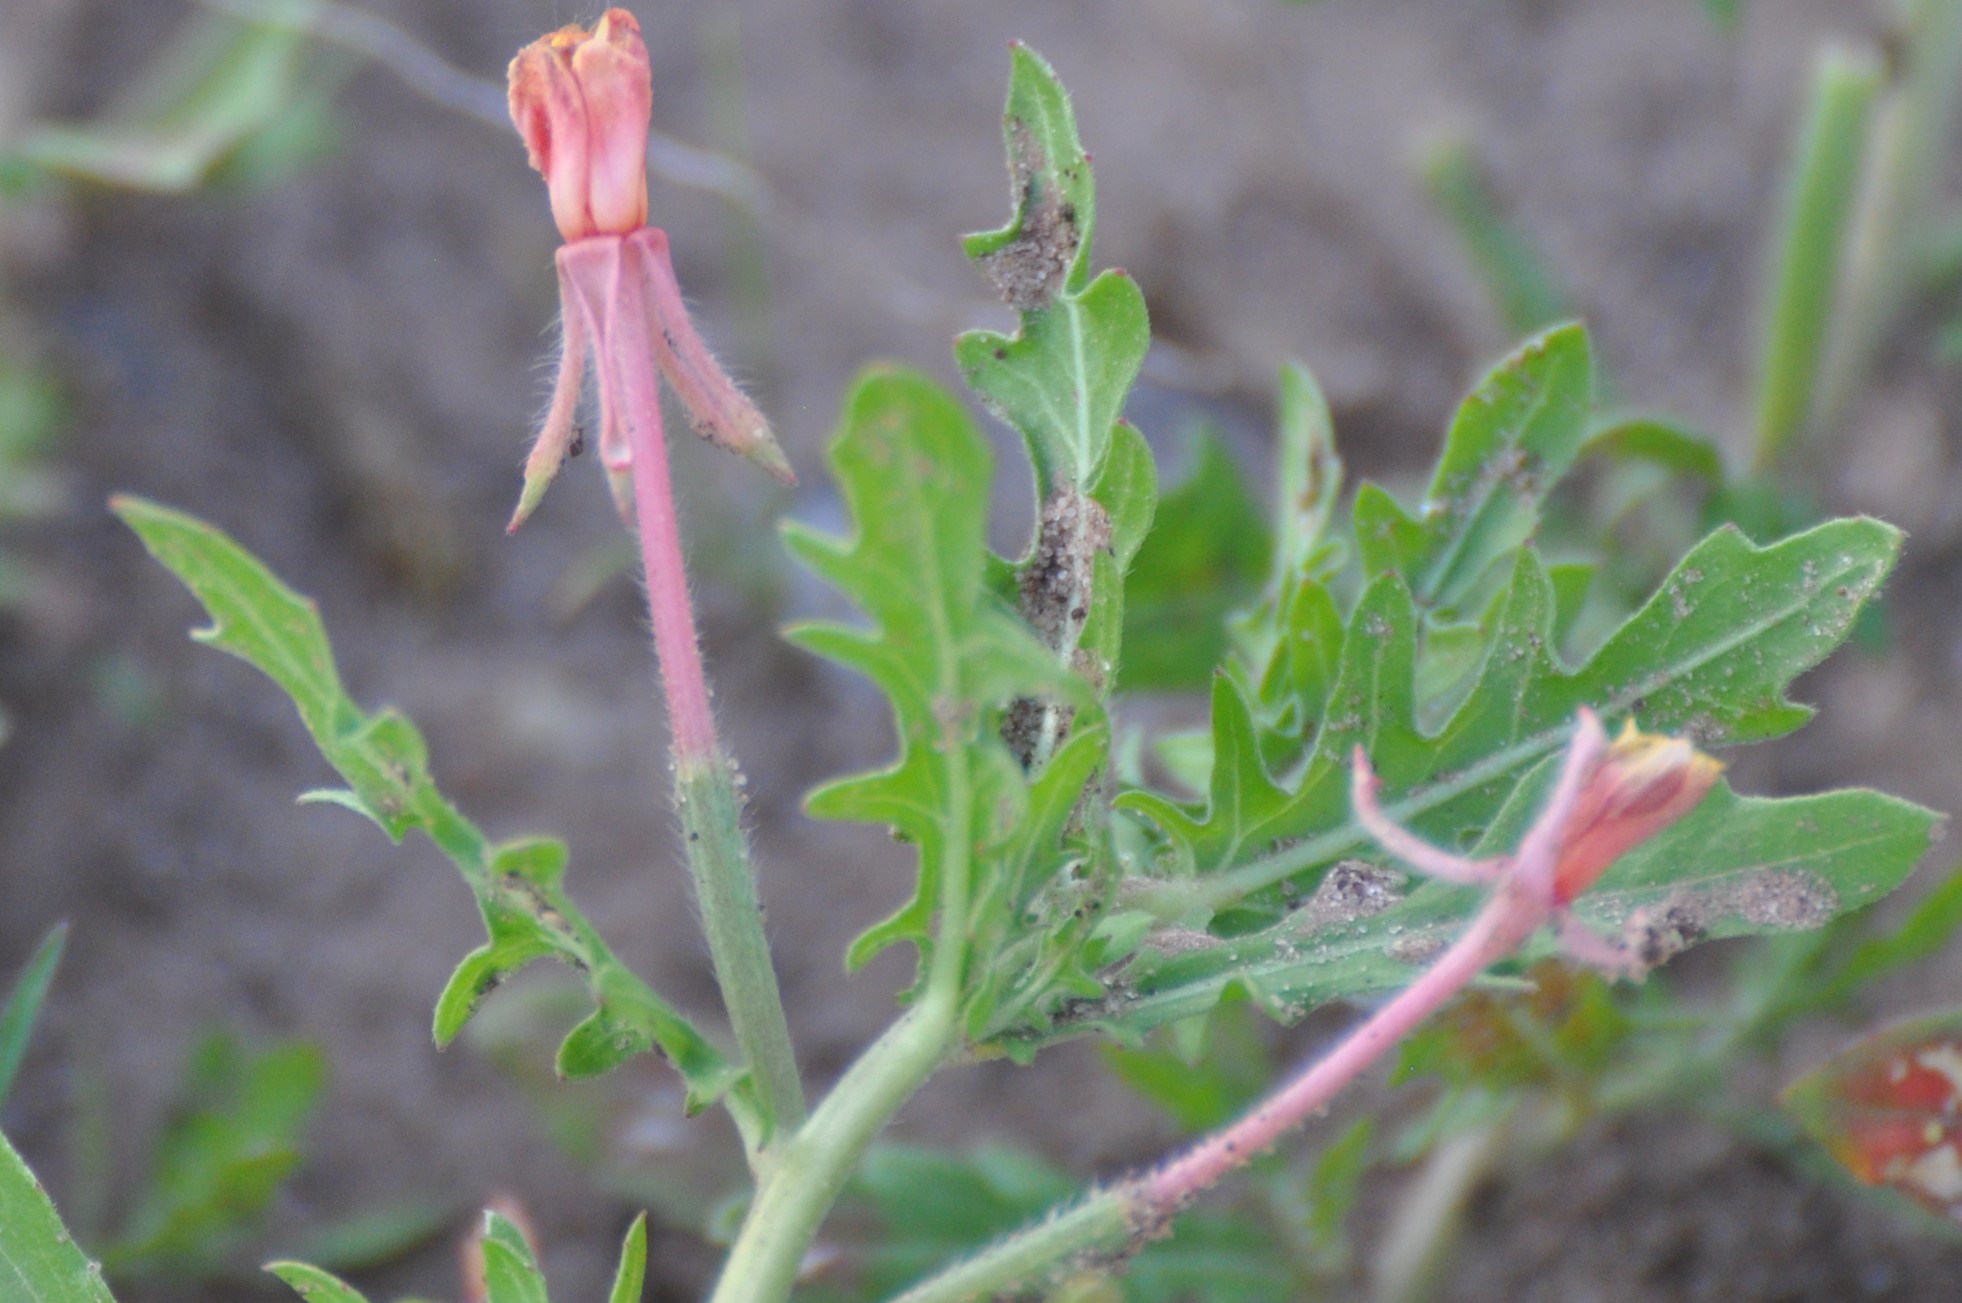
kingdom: Plantae
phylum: Tracheophyta
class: Magnoliopsida
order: Myrtales
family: Onagraceae
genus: Oenothera
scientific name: Oenothera laciniata
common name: Cut-leaved evening-primrose
